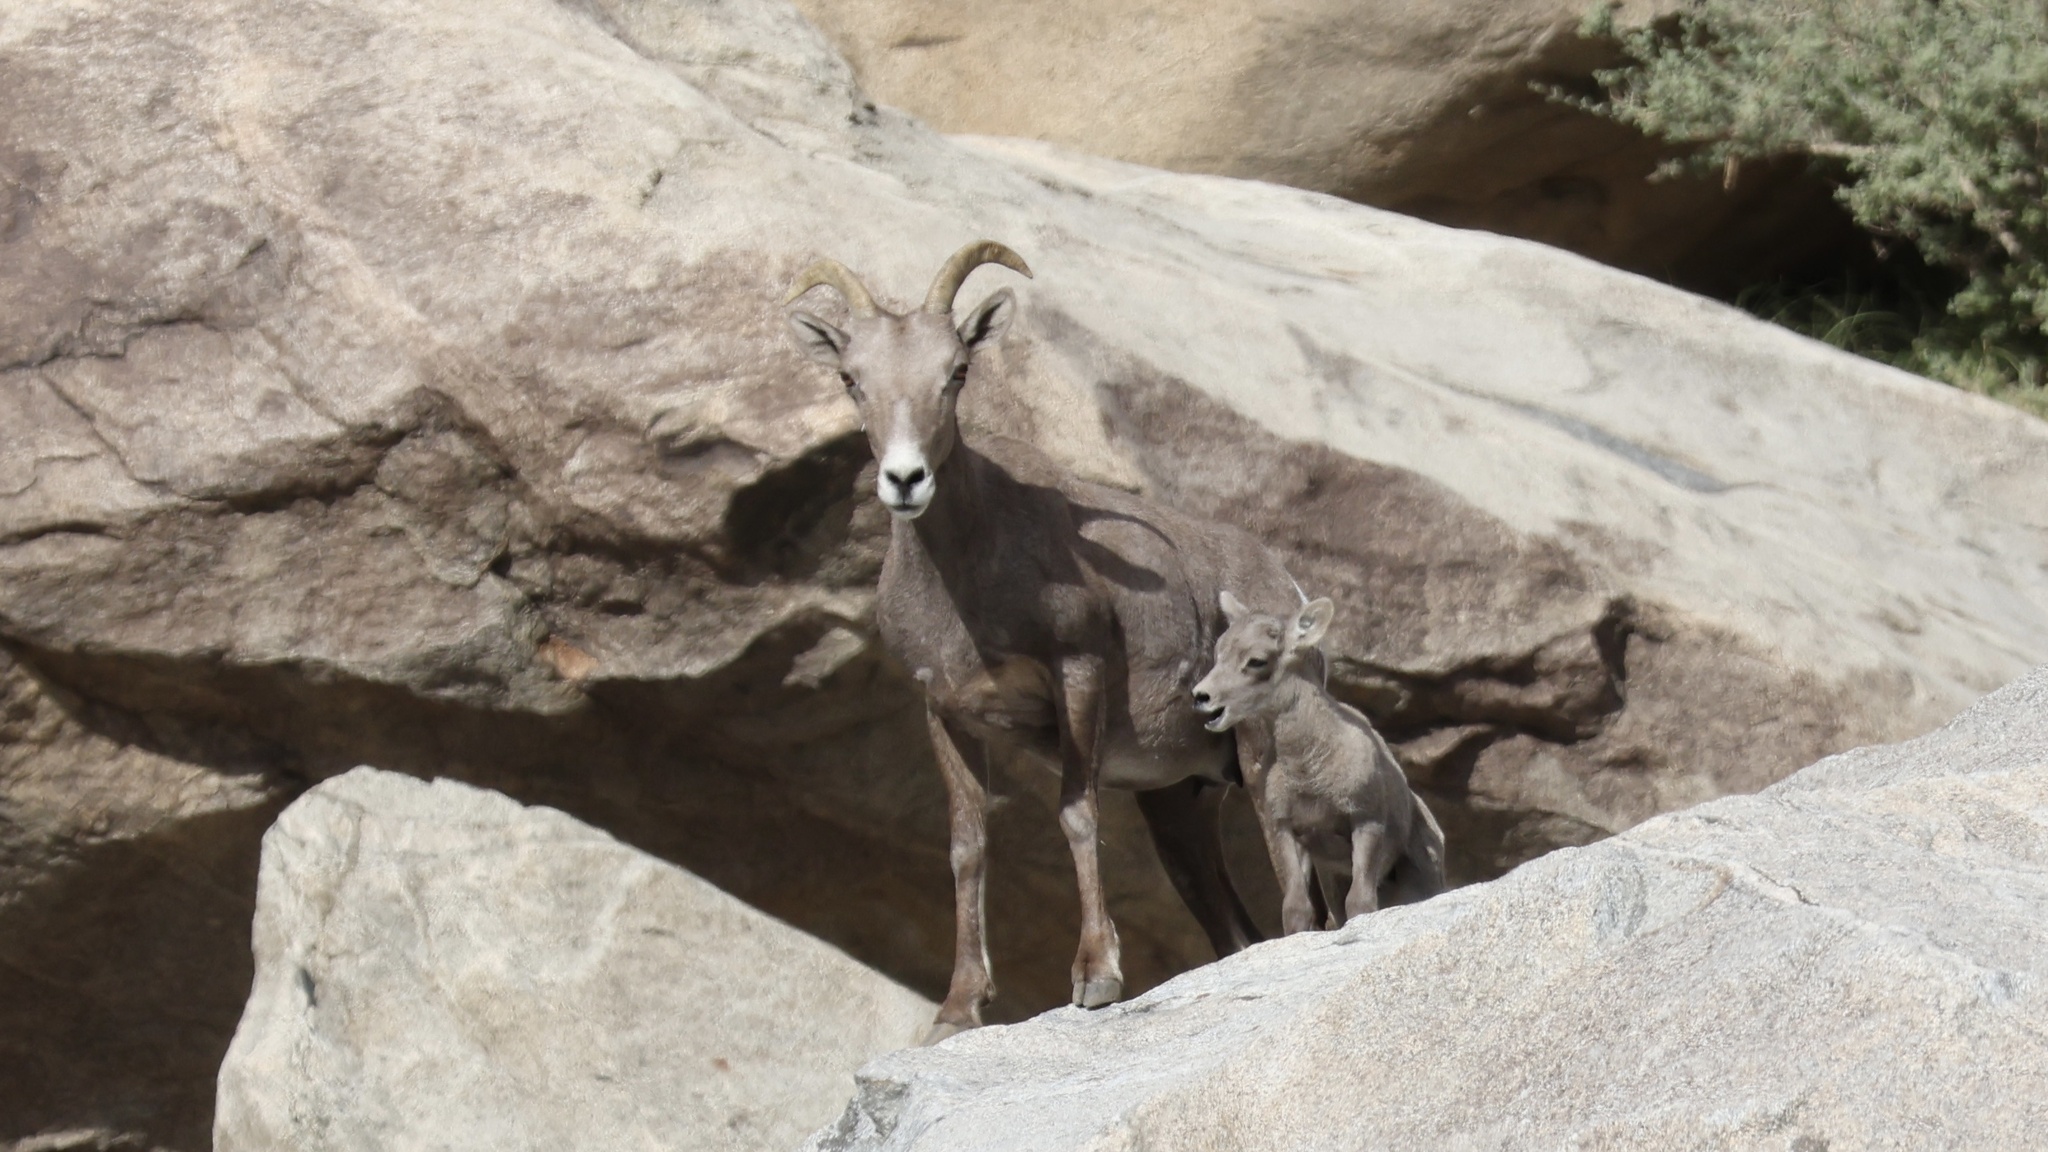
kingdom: Animalia
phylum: Chordata
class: Mammalia
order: Artiodactyla
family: Bovidae
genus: Ovis
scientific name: Ovis canadensis
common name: Bighorn sheep
